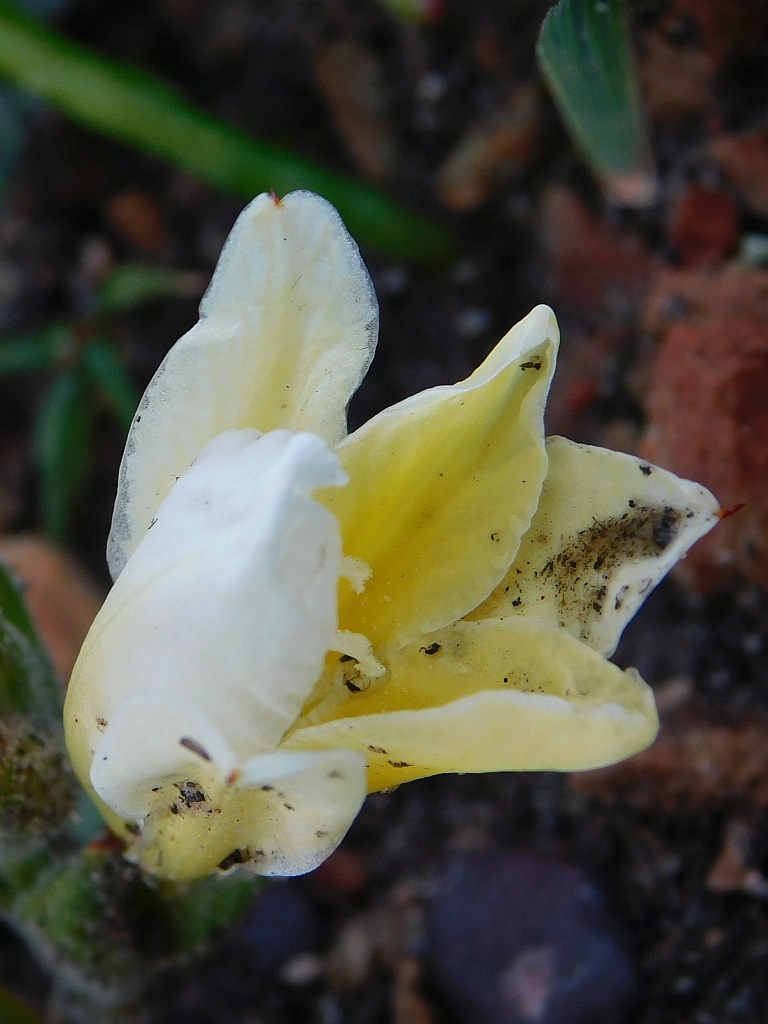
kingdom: Plantae
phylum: Tracheophyta
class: Liliopsida
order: Asparagales
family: Iridaceae
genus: Babiana
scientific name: Babiana patula
